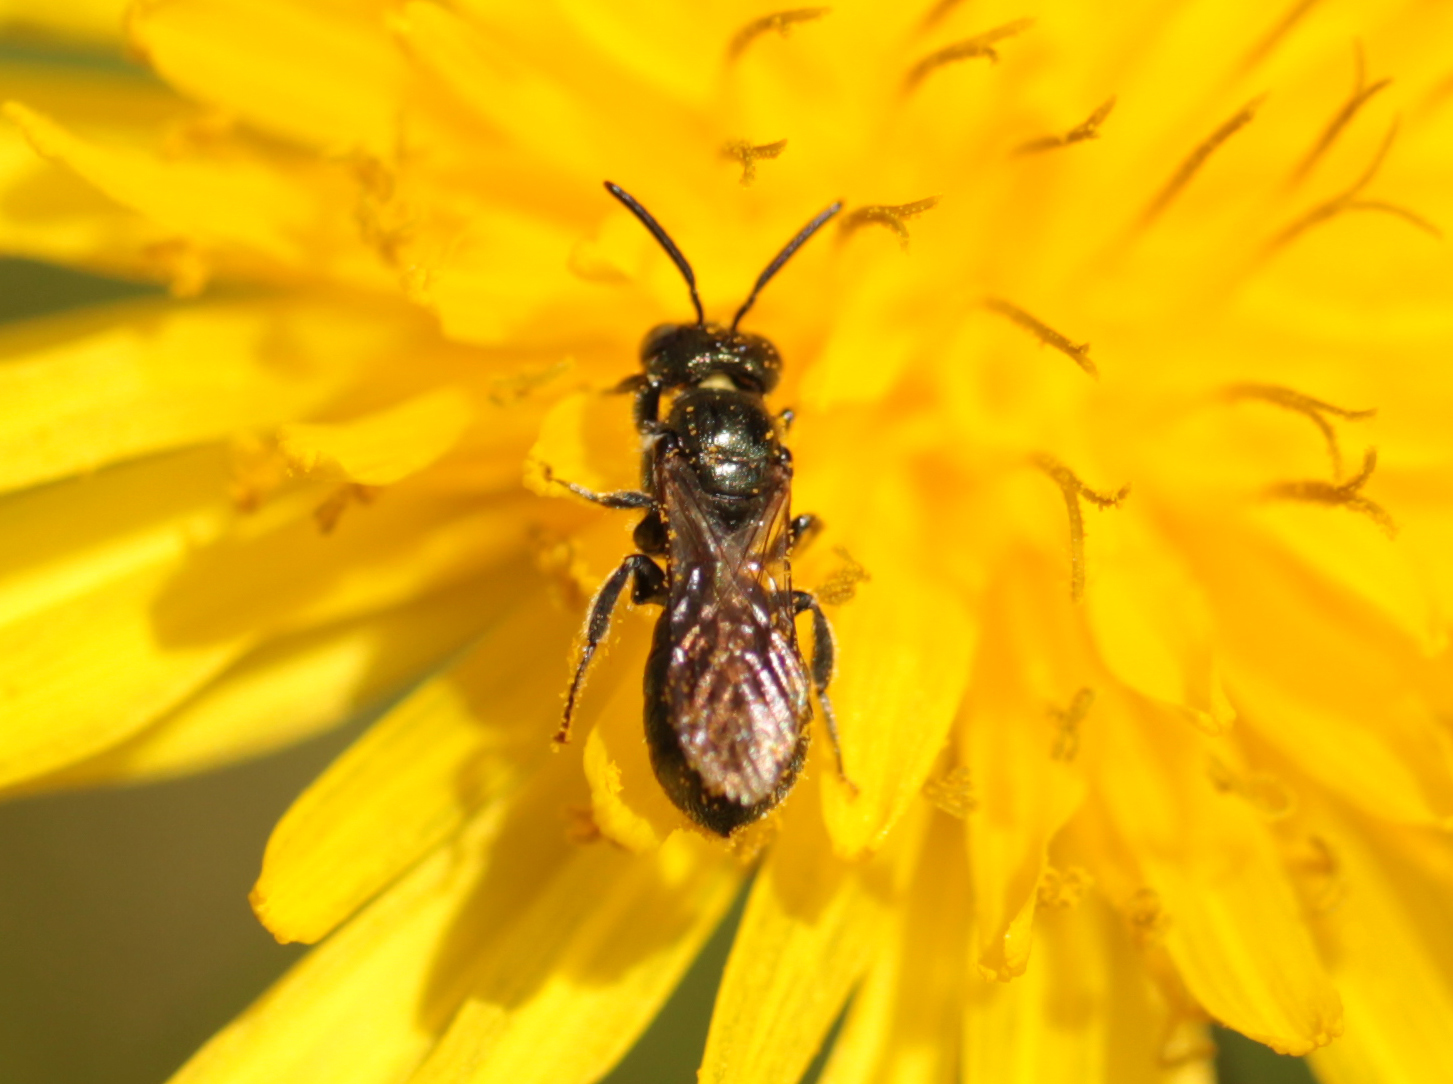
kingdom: Animalia
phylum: Arthropoda
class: Insecta
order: Hymenoptera
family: Apidae
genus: Ceratina
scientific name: Ceratina calcarata
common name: Spurred carpenter bee
